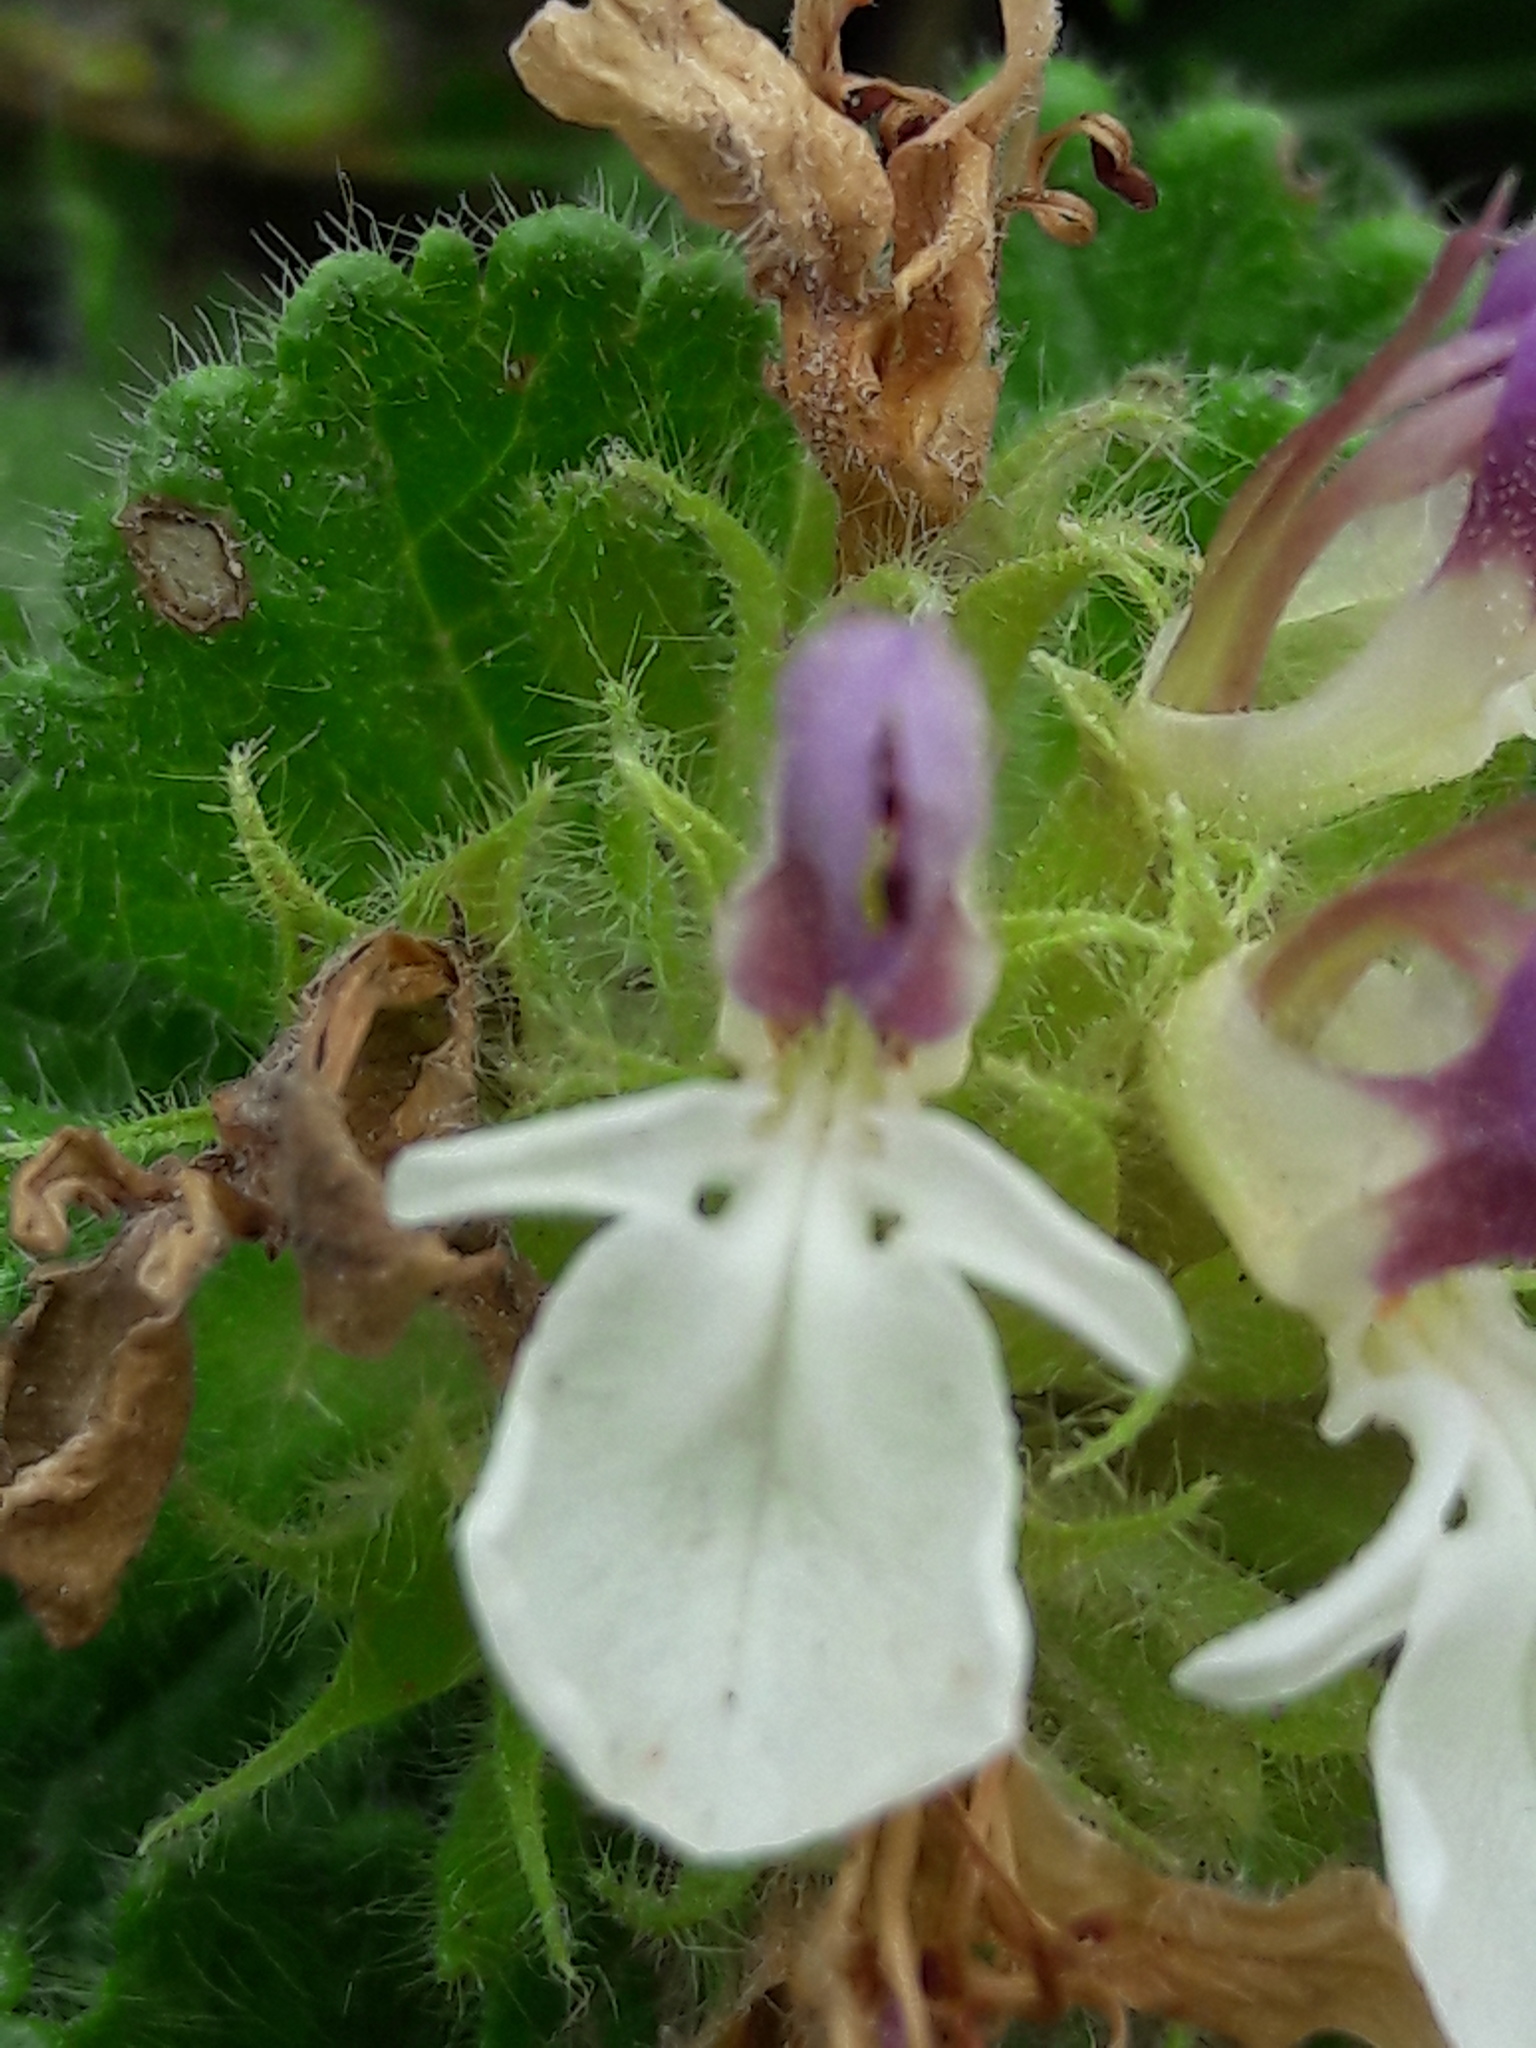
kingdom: Plantae
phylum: Tracheophyta
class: Magnoliopsida
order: Lamiales
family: Lamiaceae
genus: Teucrium
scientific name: Teucrium pyrenaicum
